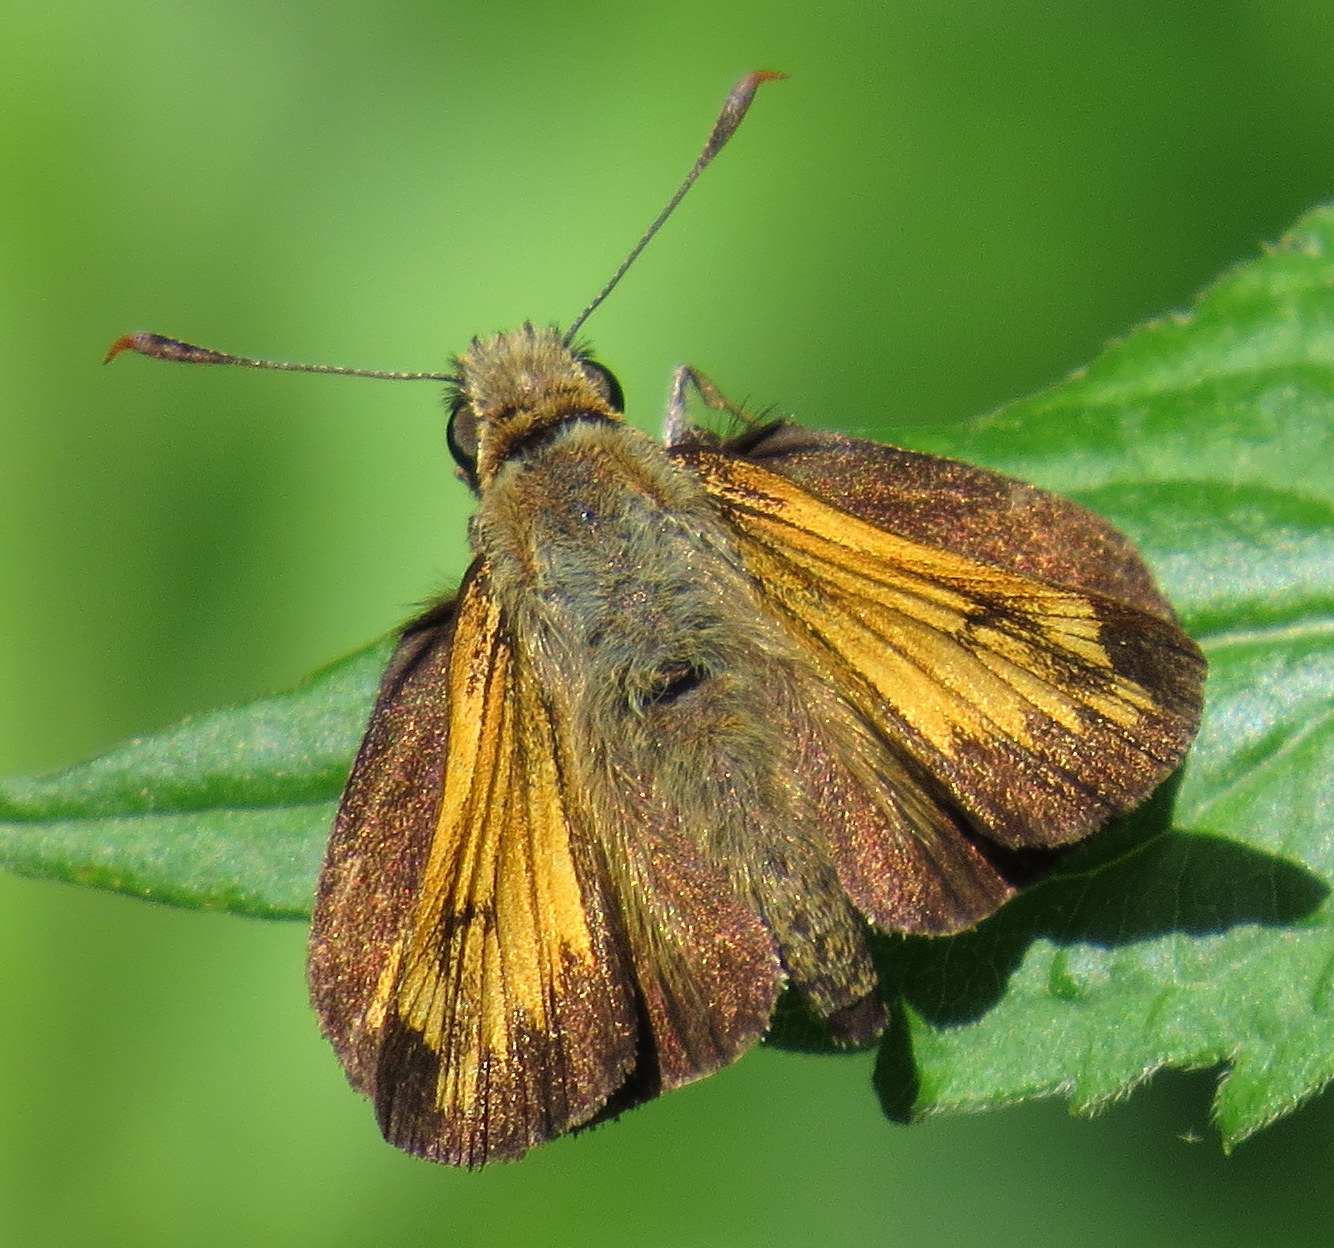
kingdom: Animalia
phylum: Arthropoda
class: Insecta
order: Lepidoptera
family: Hesperiidae
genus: Lon
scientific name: Lon hobomok
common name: Hobomok skipper
